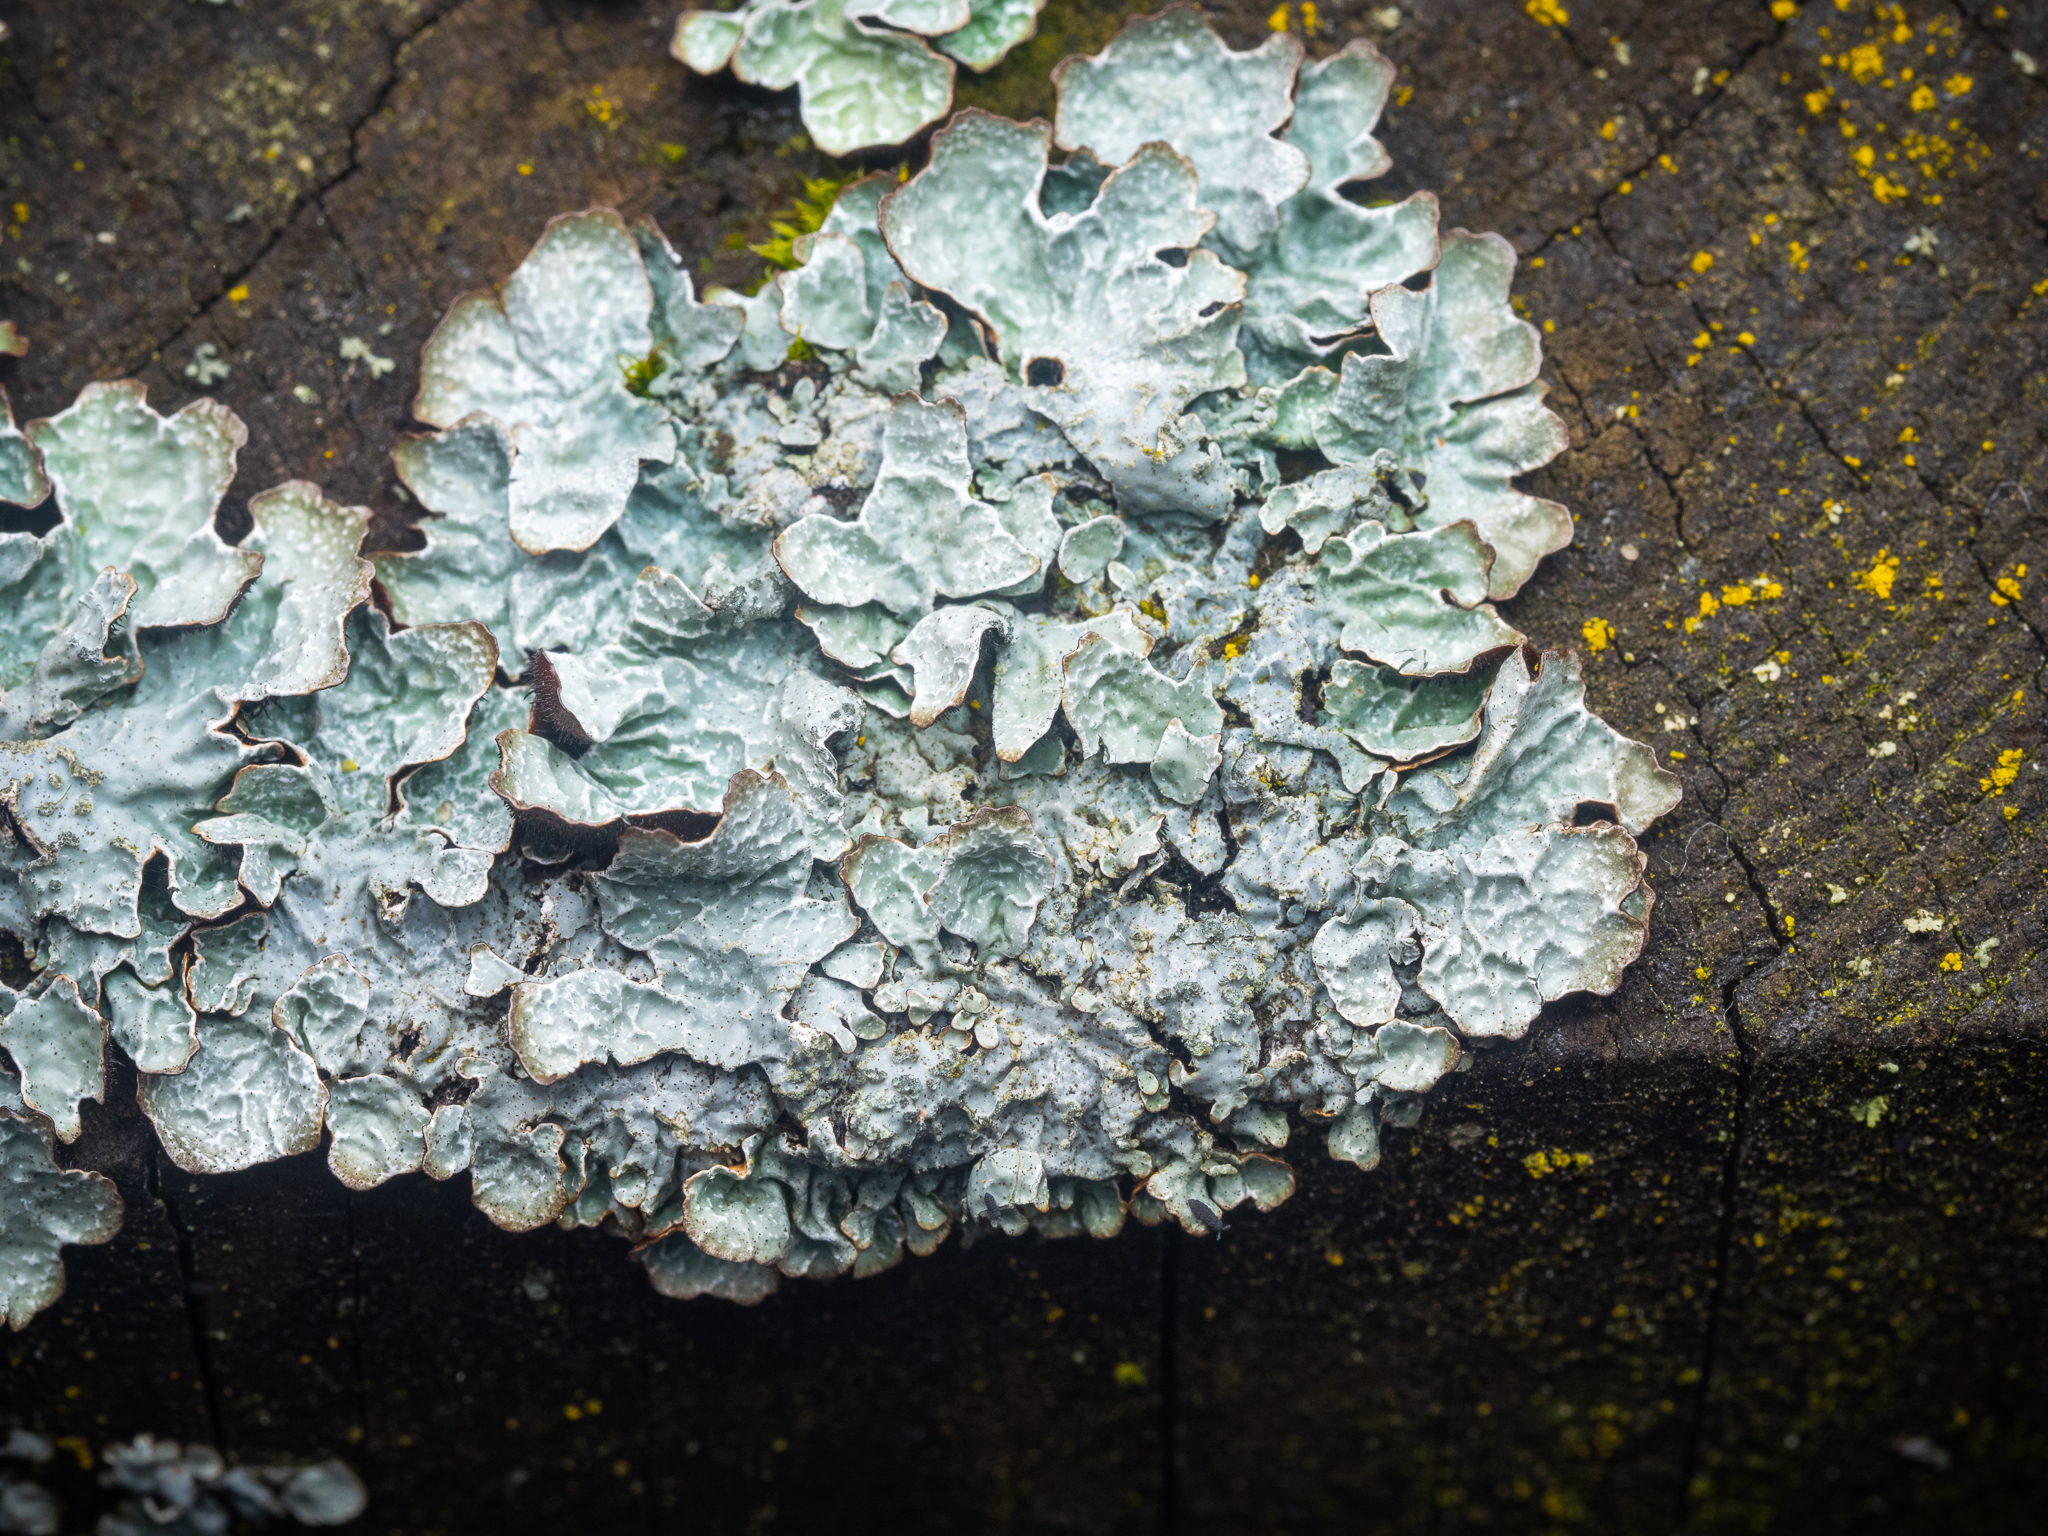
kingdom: Fungi
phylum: Ascomycota
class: Lecanoromycetes
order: Lecanorales
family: Parmeliaceae
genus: Parmelia
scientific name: Parmelia sulcata
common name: Netted shield lichen
